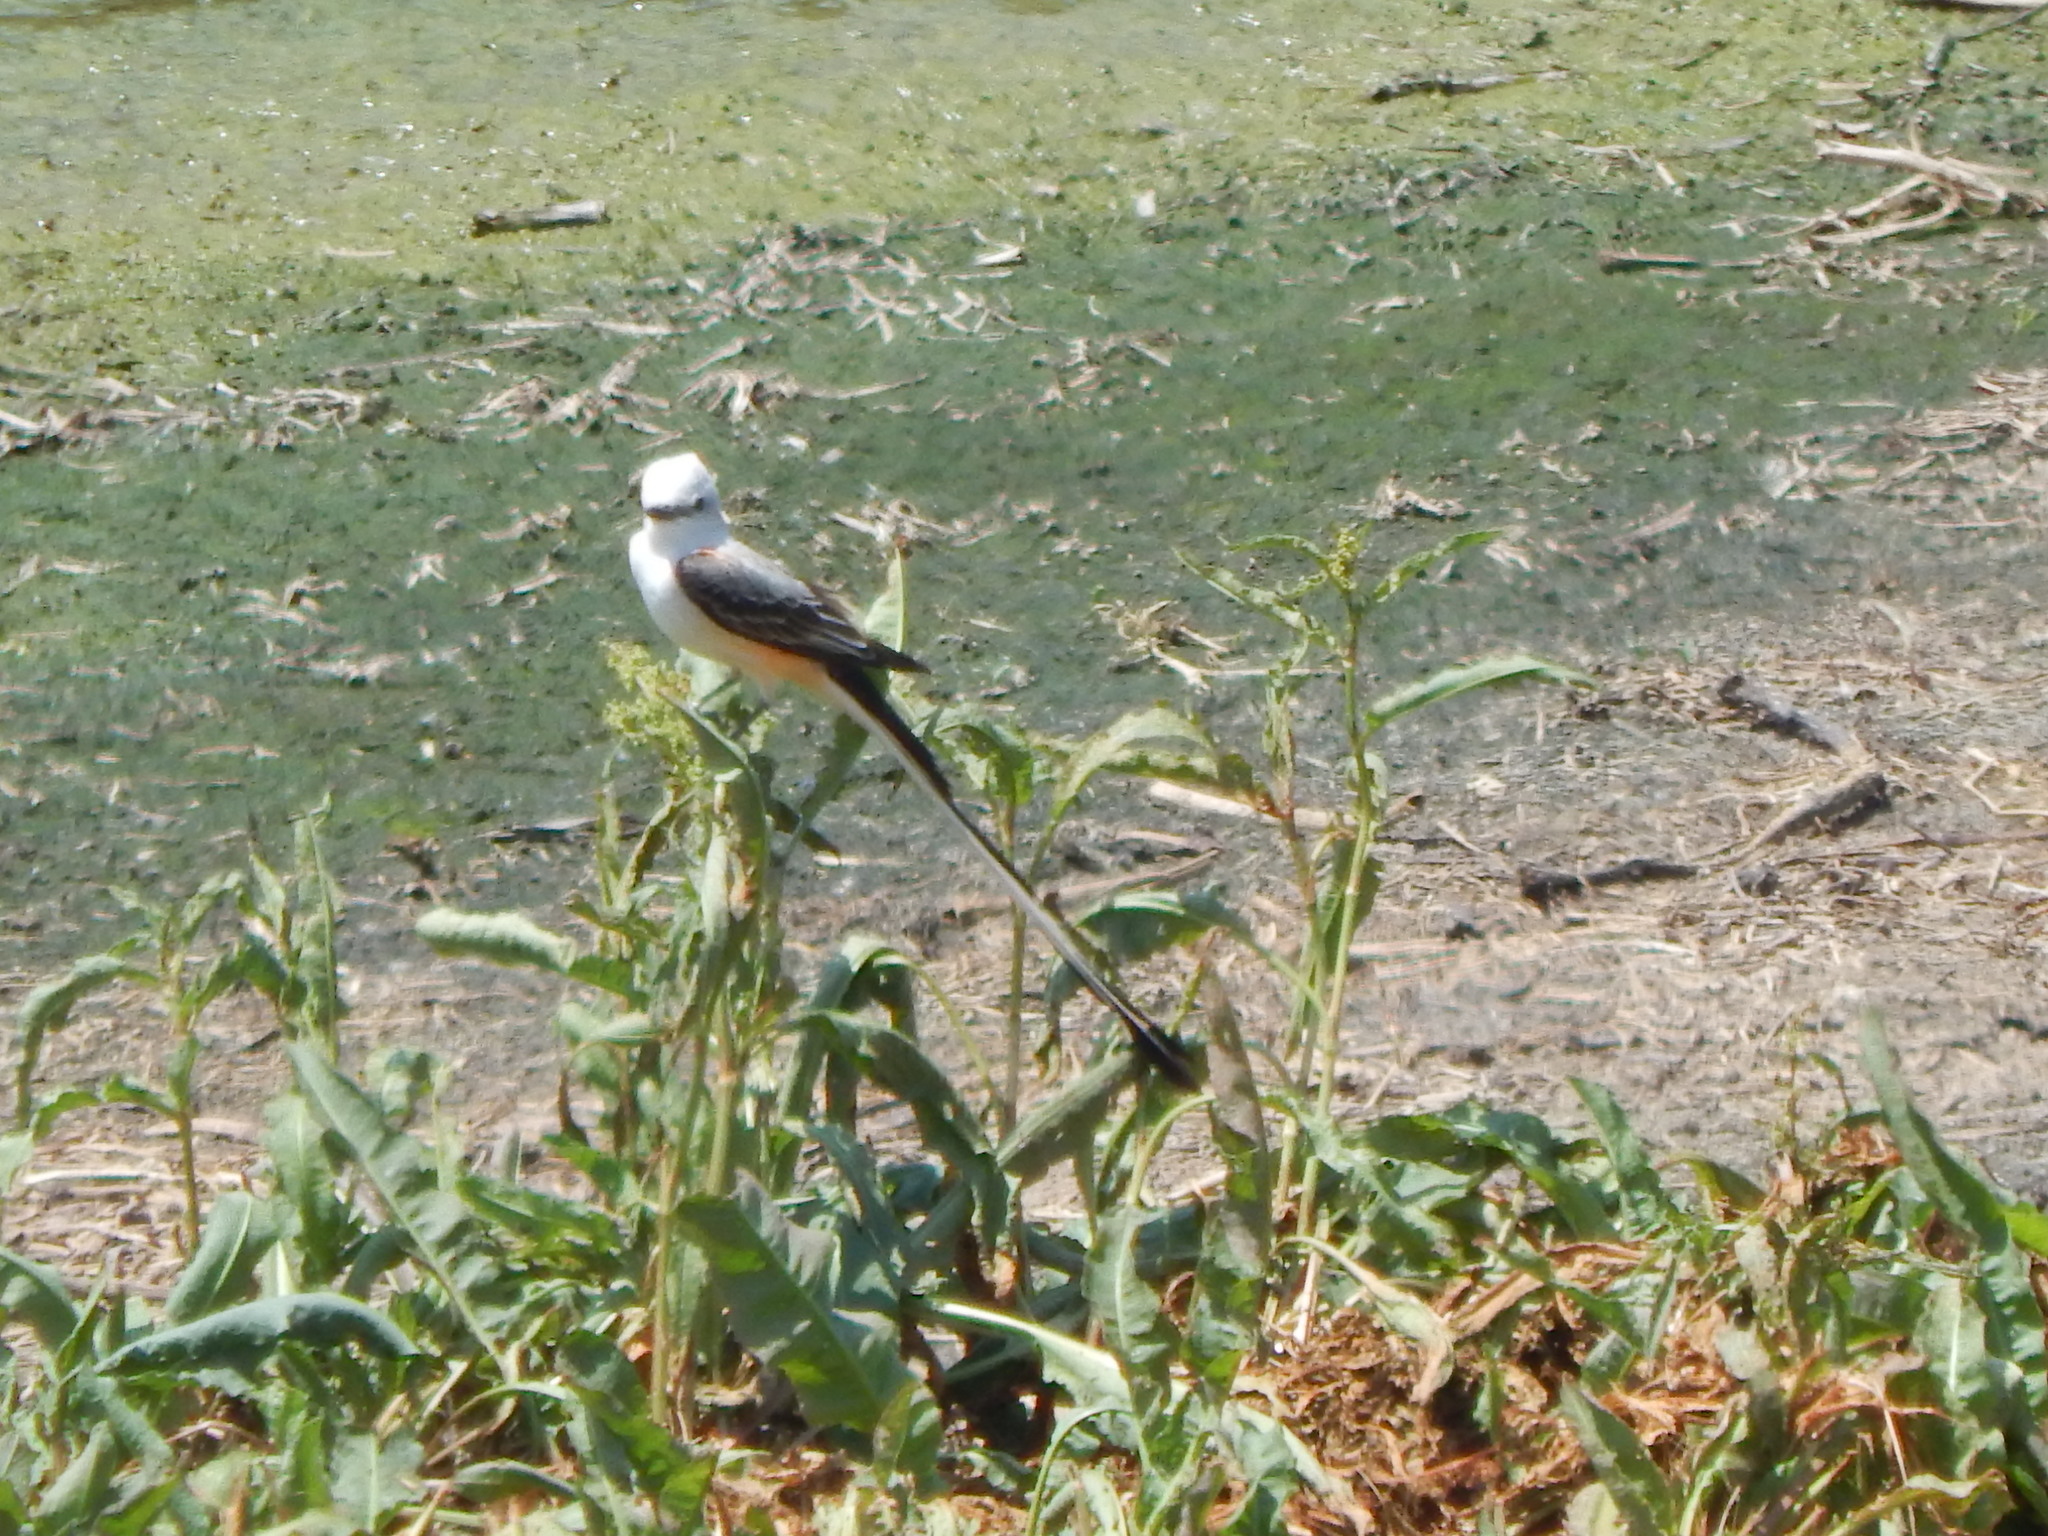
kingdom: Animalia
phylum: Chordata
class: Aves
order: Passeriformes
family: Tyrannidae
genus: Tyrannus
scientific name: Tyrannus forficatus
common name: Scissor-tailed flycatcher
